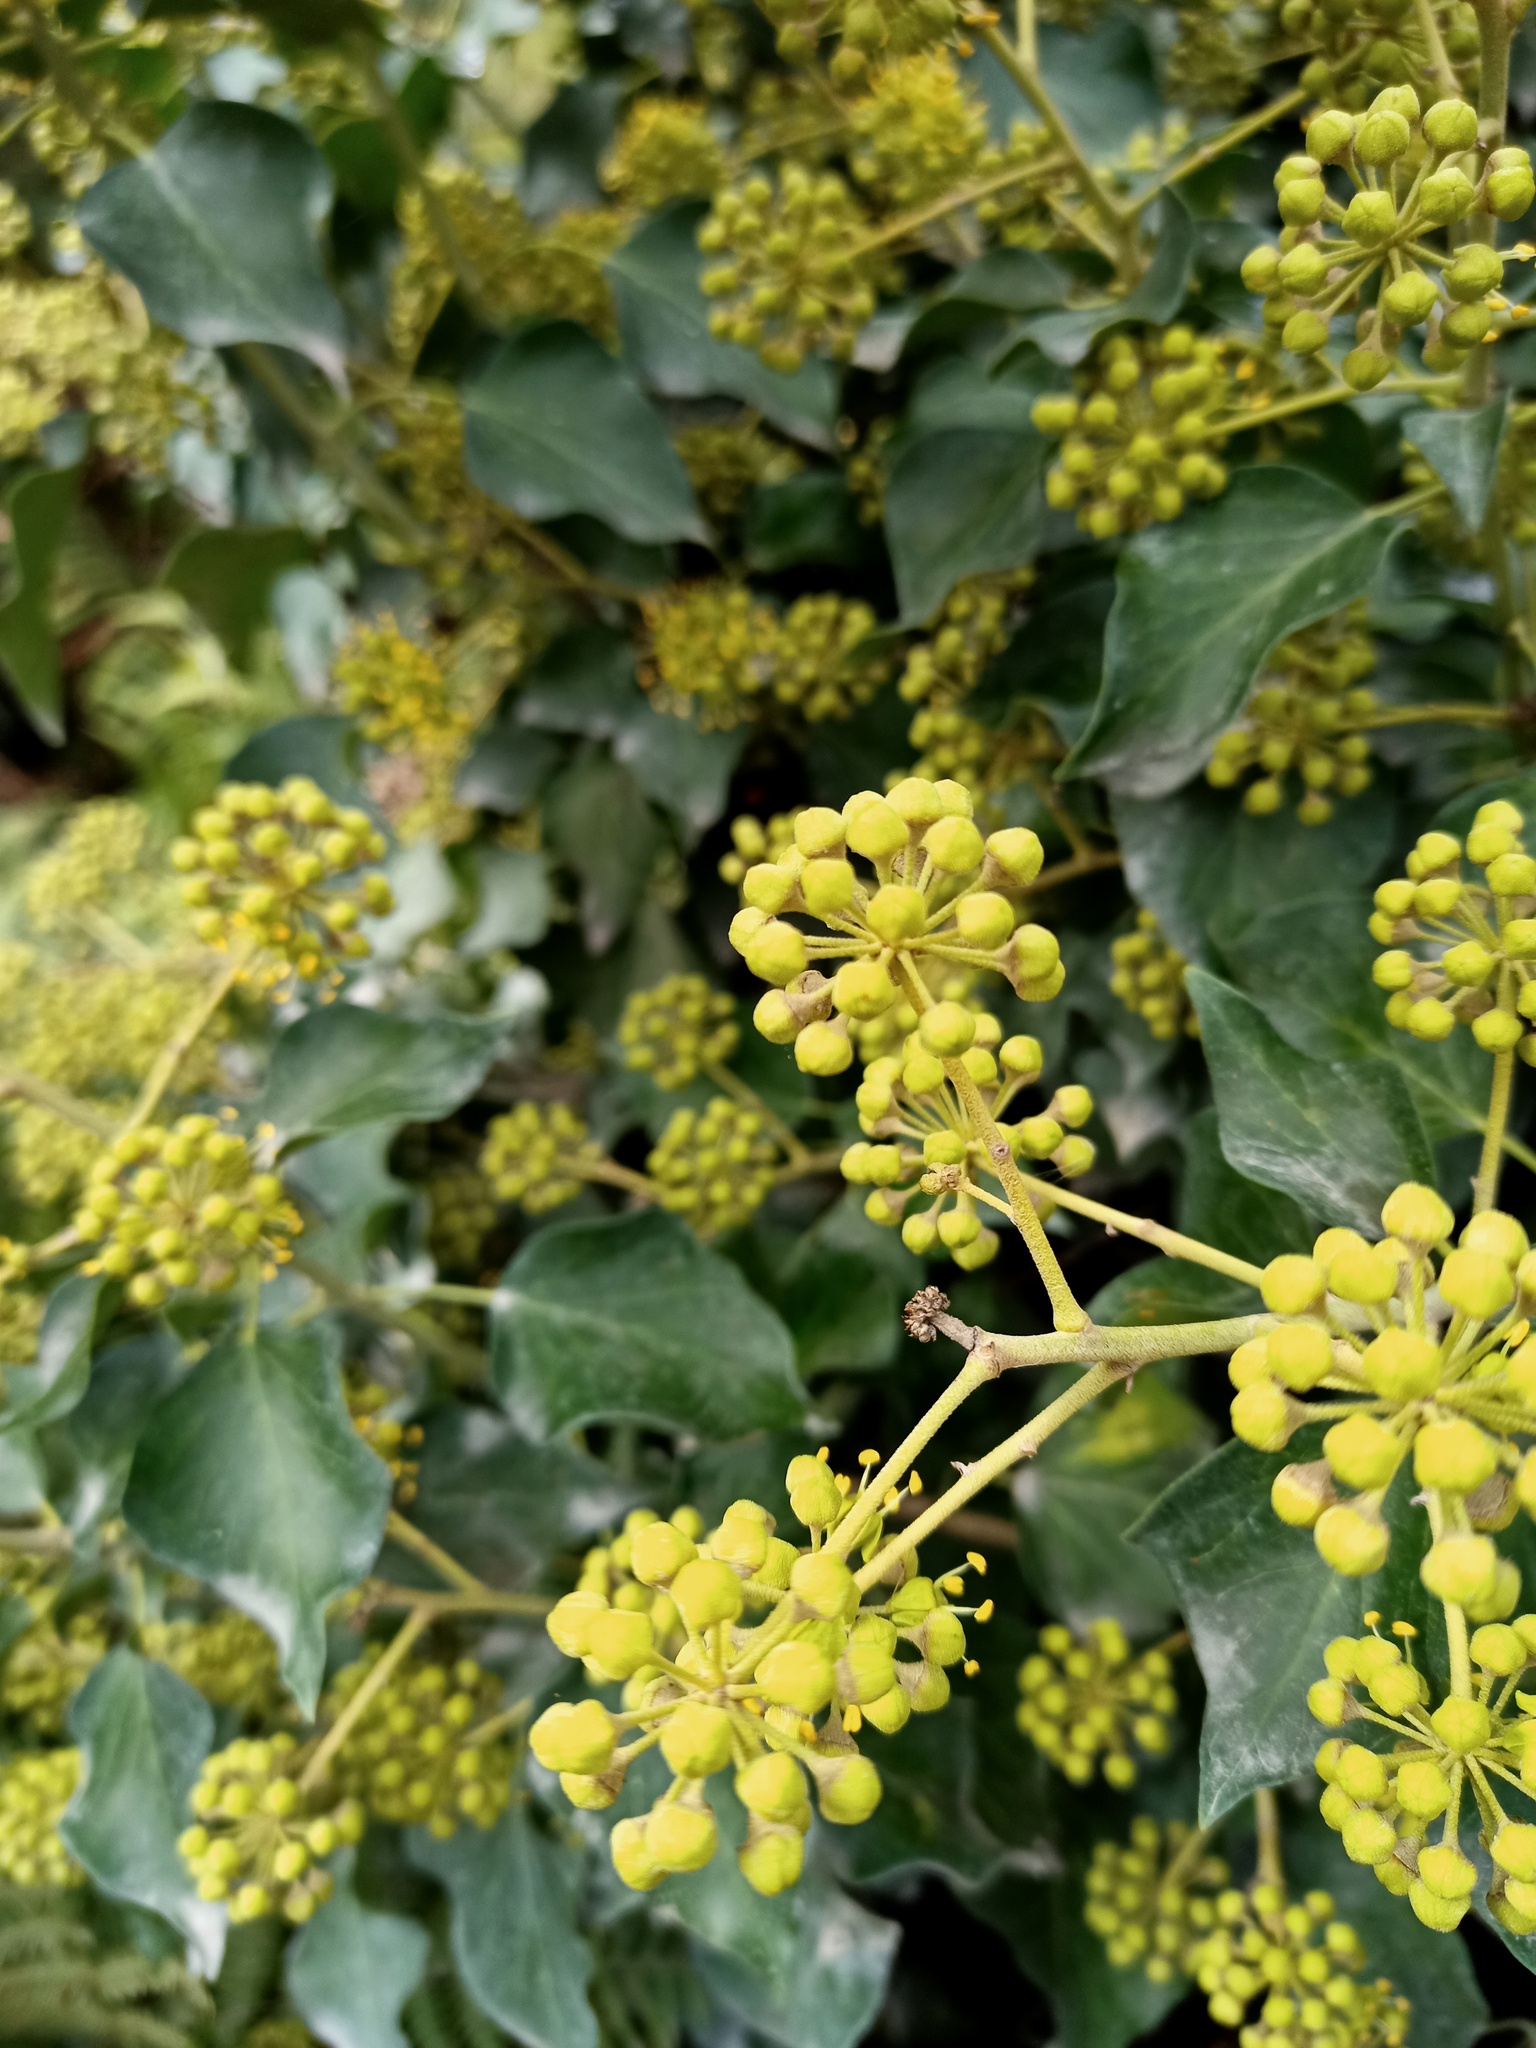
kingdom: Plantae
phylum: Tracheophyta
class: Magnoliopsida
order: Apiales
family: Araliaceae
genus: Hedera
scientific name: Hedera helix
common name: Ivy
